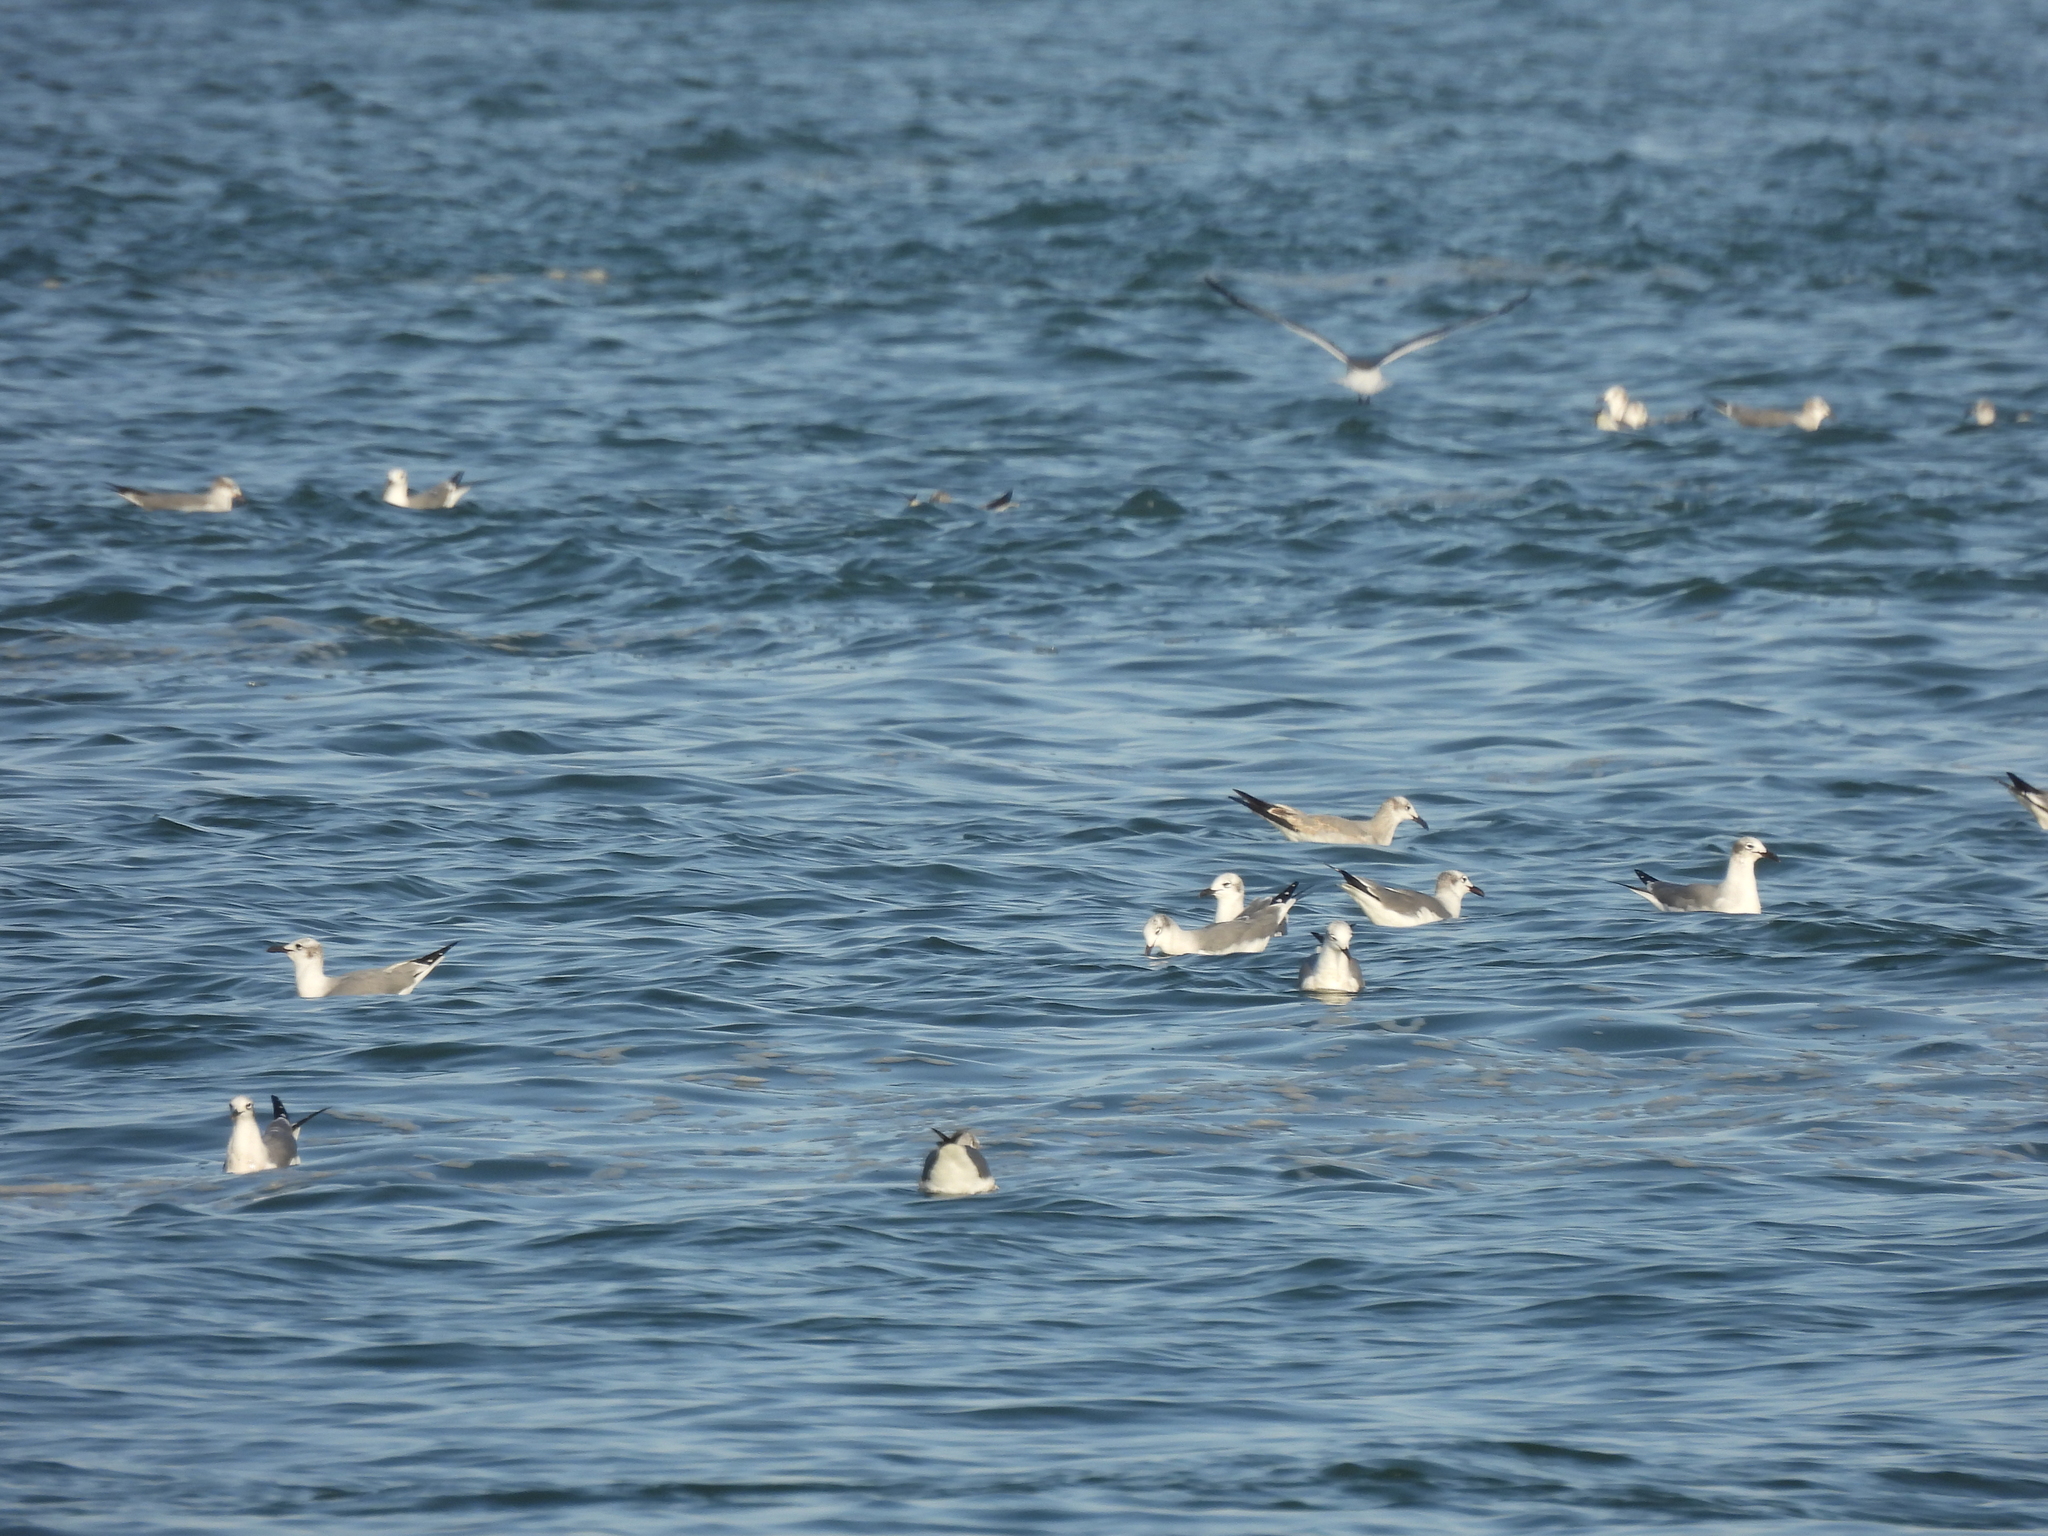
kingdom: Animalia
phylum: Chordata
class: Aves
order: Charadriiformes
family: Laridae
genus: Leucophaeus
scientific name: Leucophaeus atricilla
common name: Laughing gull
